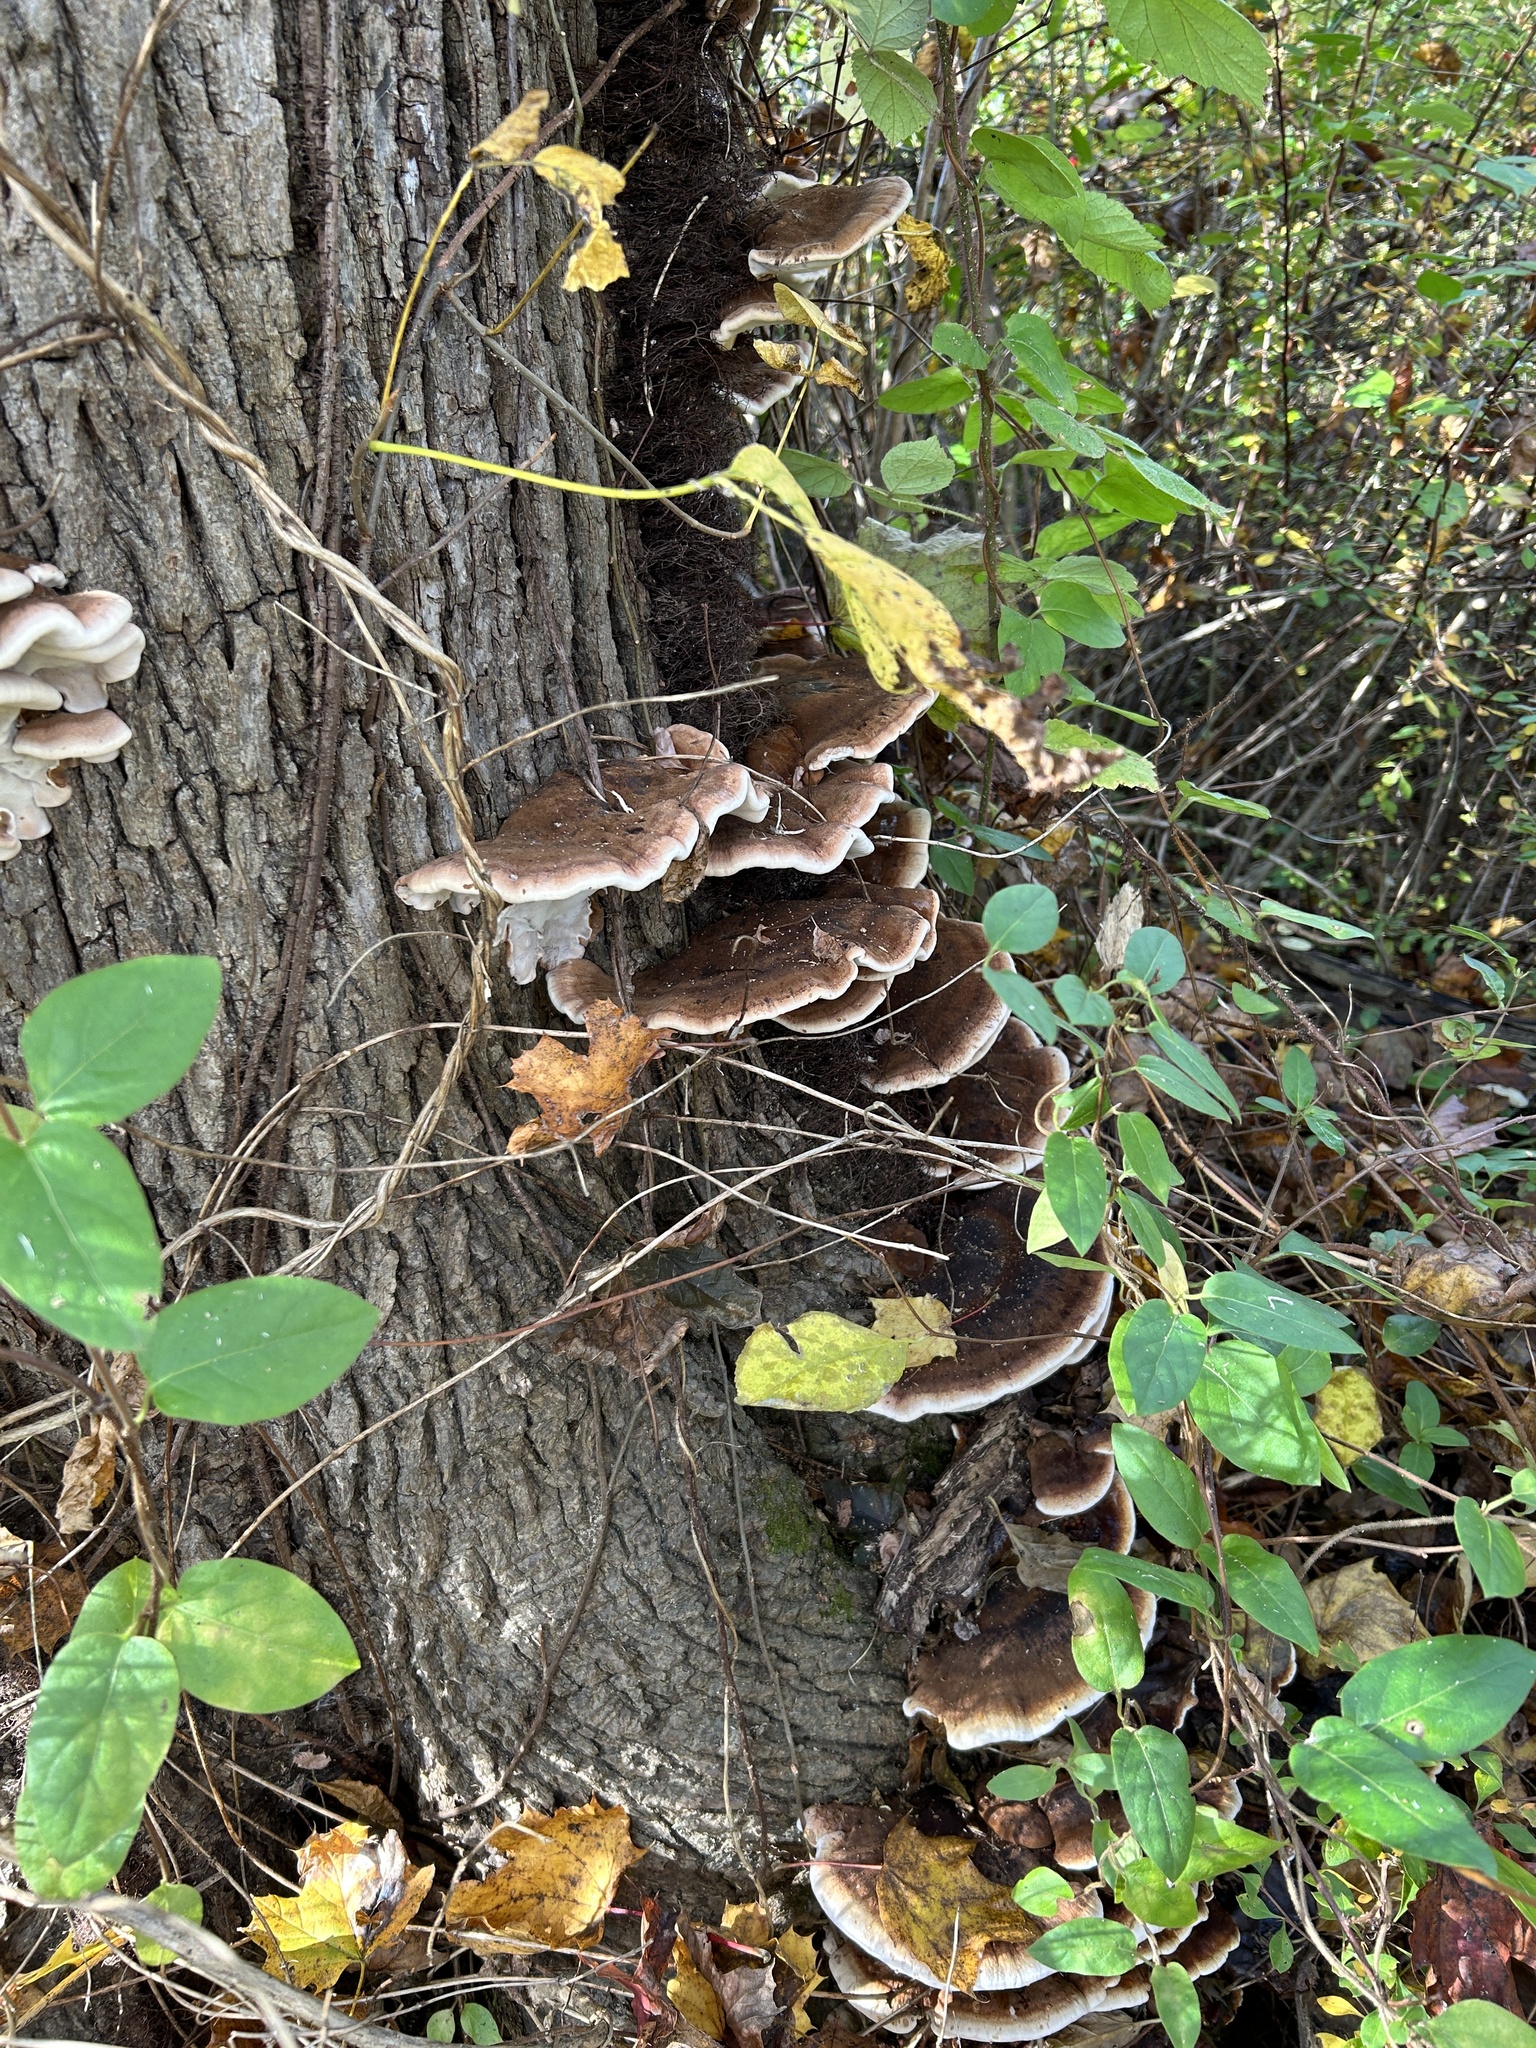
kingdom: Fungi
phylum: Basidiomycota
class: Agaricomycetes
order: Polyporales
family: Ischnodermataceae
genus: Ischnoderma
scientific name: Ischnoderma resinosum
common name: Resinous polypore
